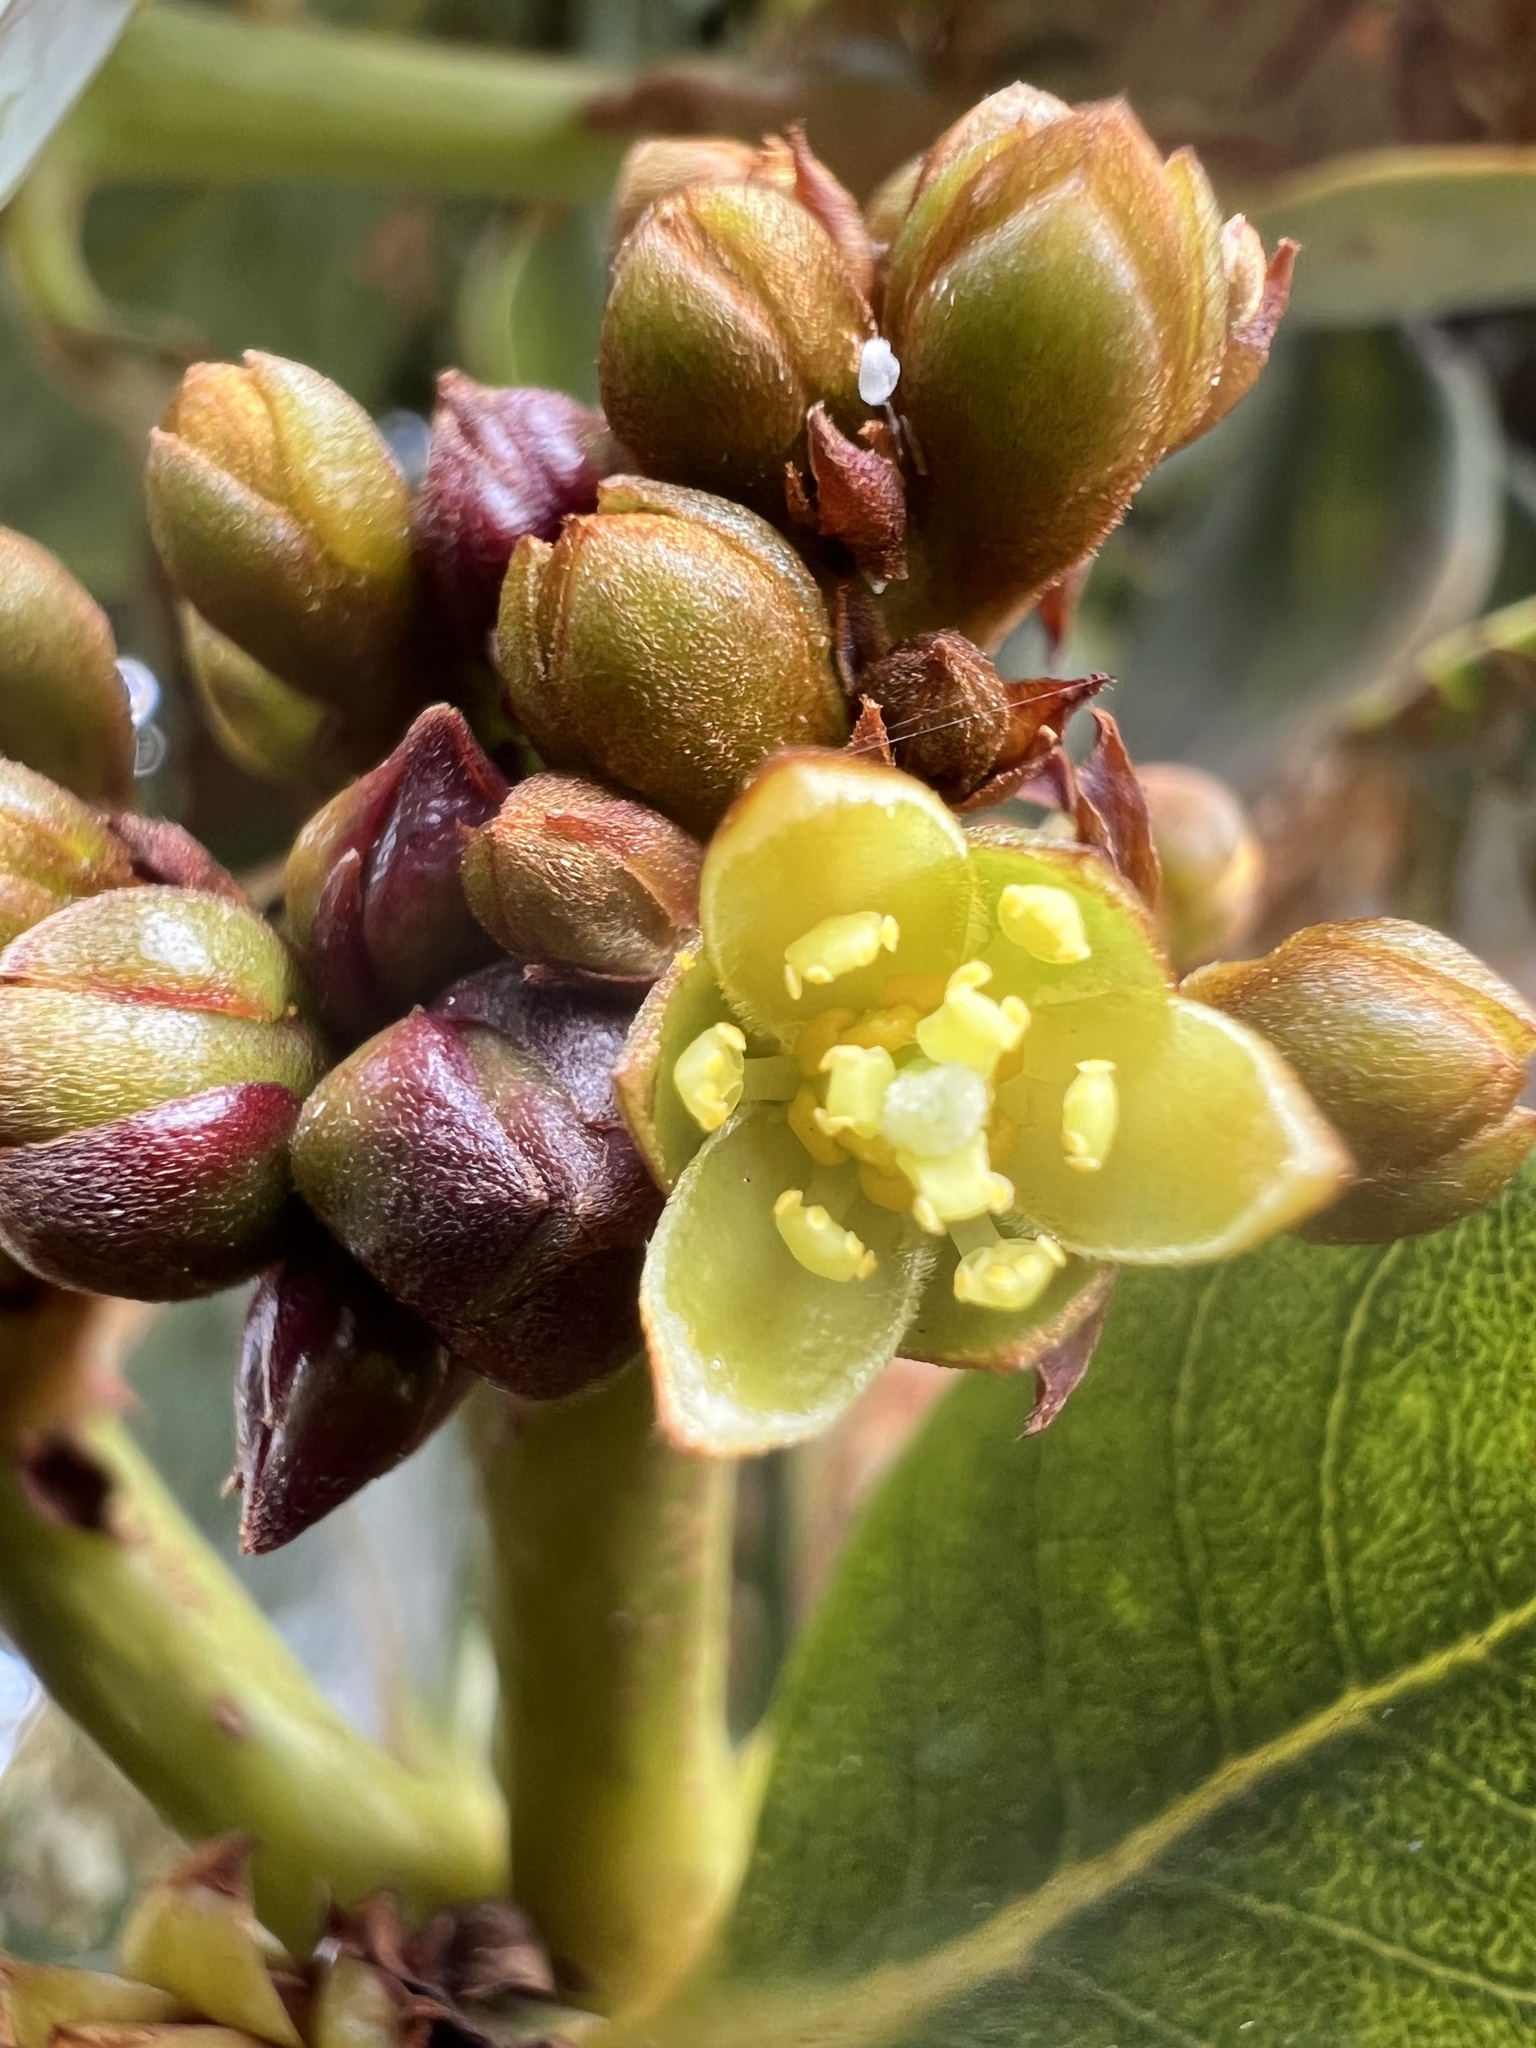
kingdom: Plantae
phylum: Tracheophyta
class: Magnoliopsida
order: Laurales
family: Lauraceae
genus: Persea
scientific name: Persea mutisii
